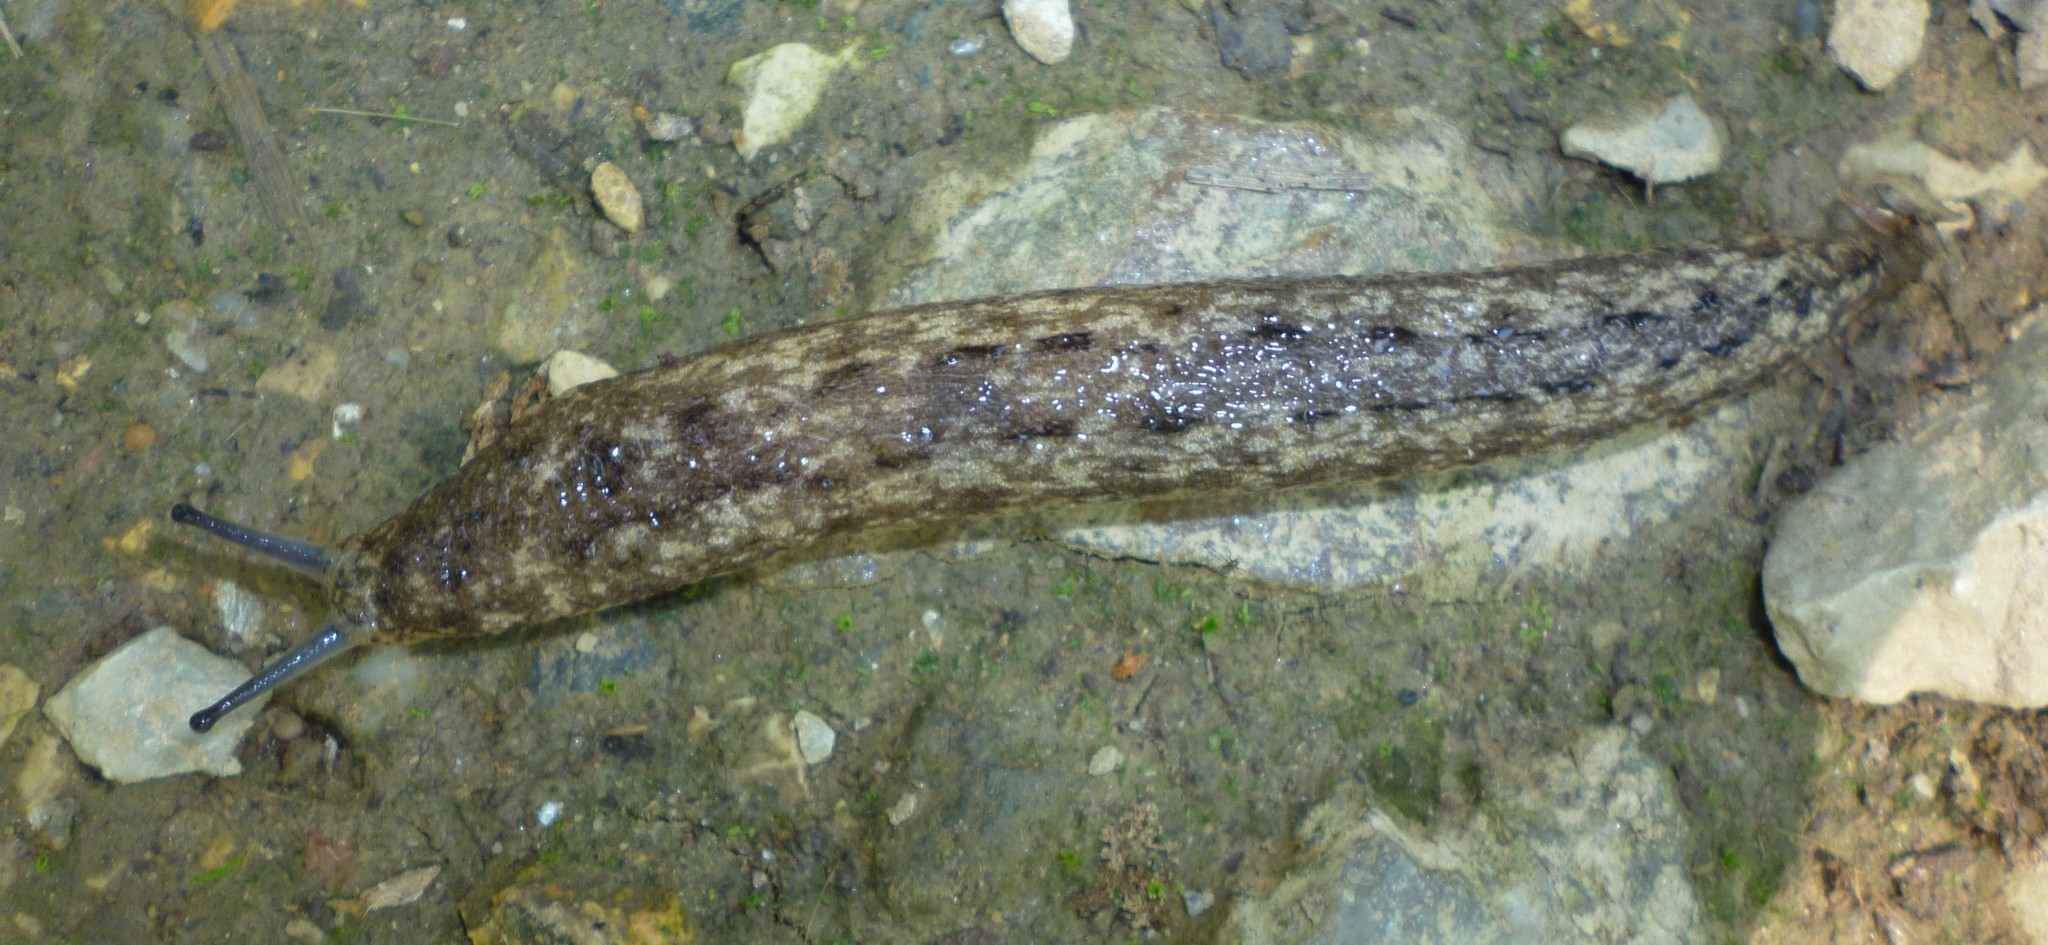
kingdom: Animalia
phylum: Mollusca
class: Gastropoda
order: Stylommatophora
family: Philomycidae
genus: Philomycus
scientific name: Philomycus carolinianus
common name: Carolina mantleslug
